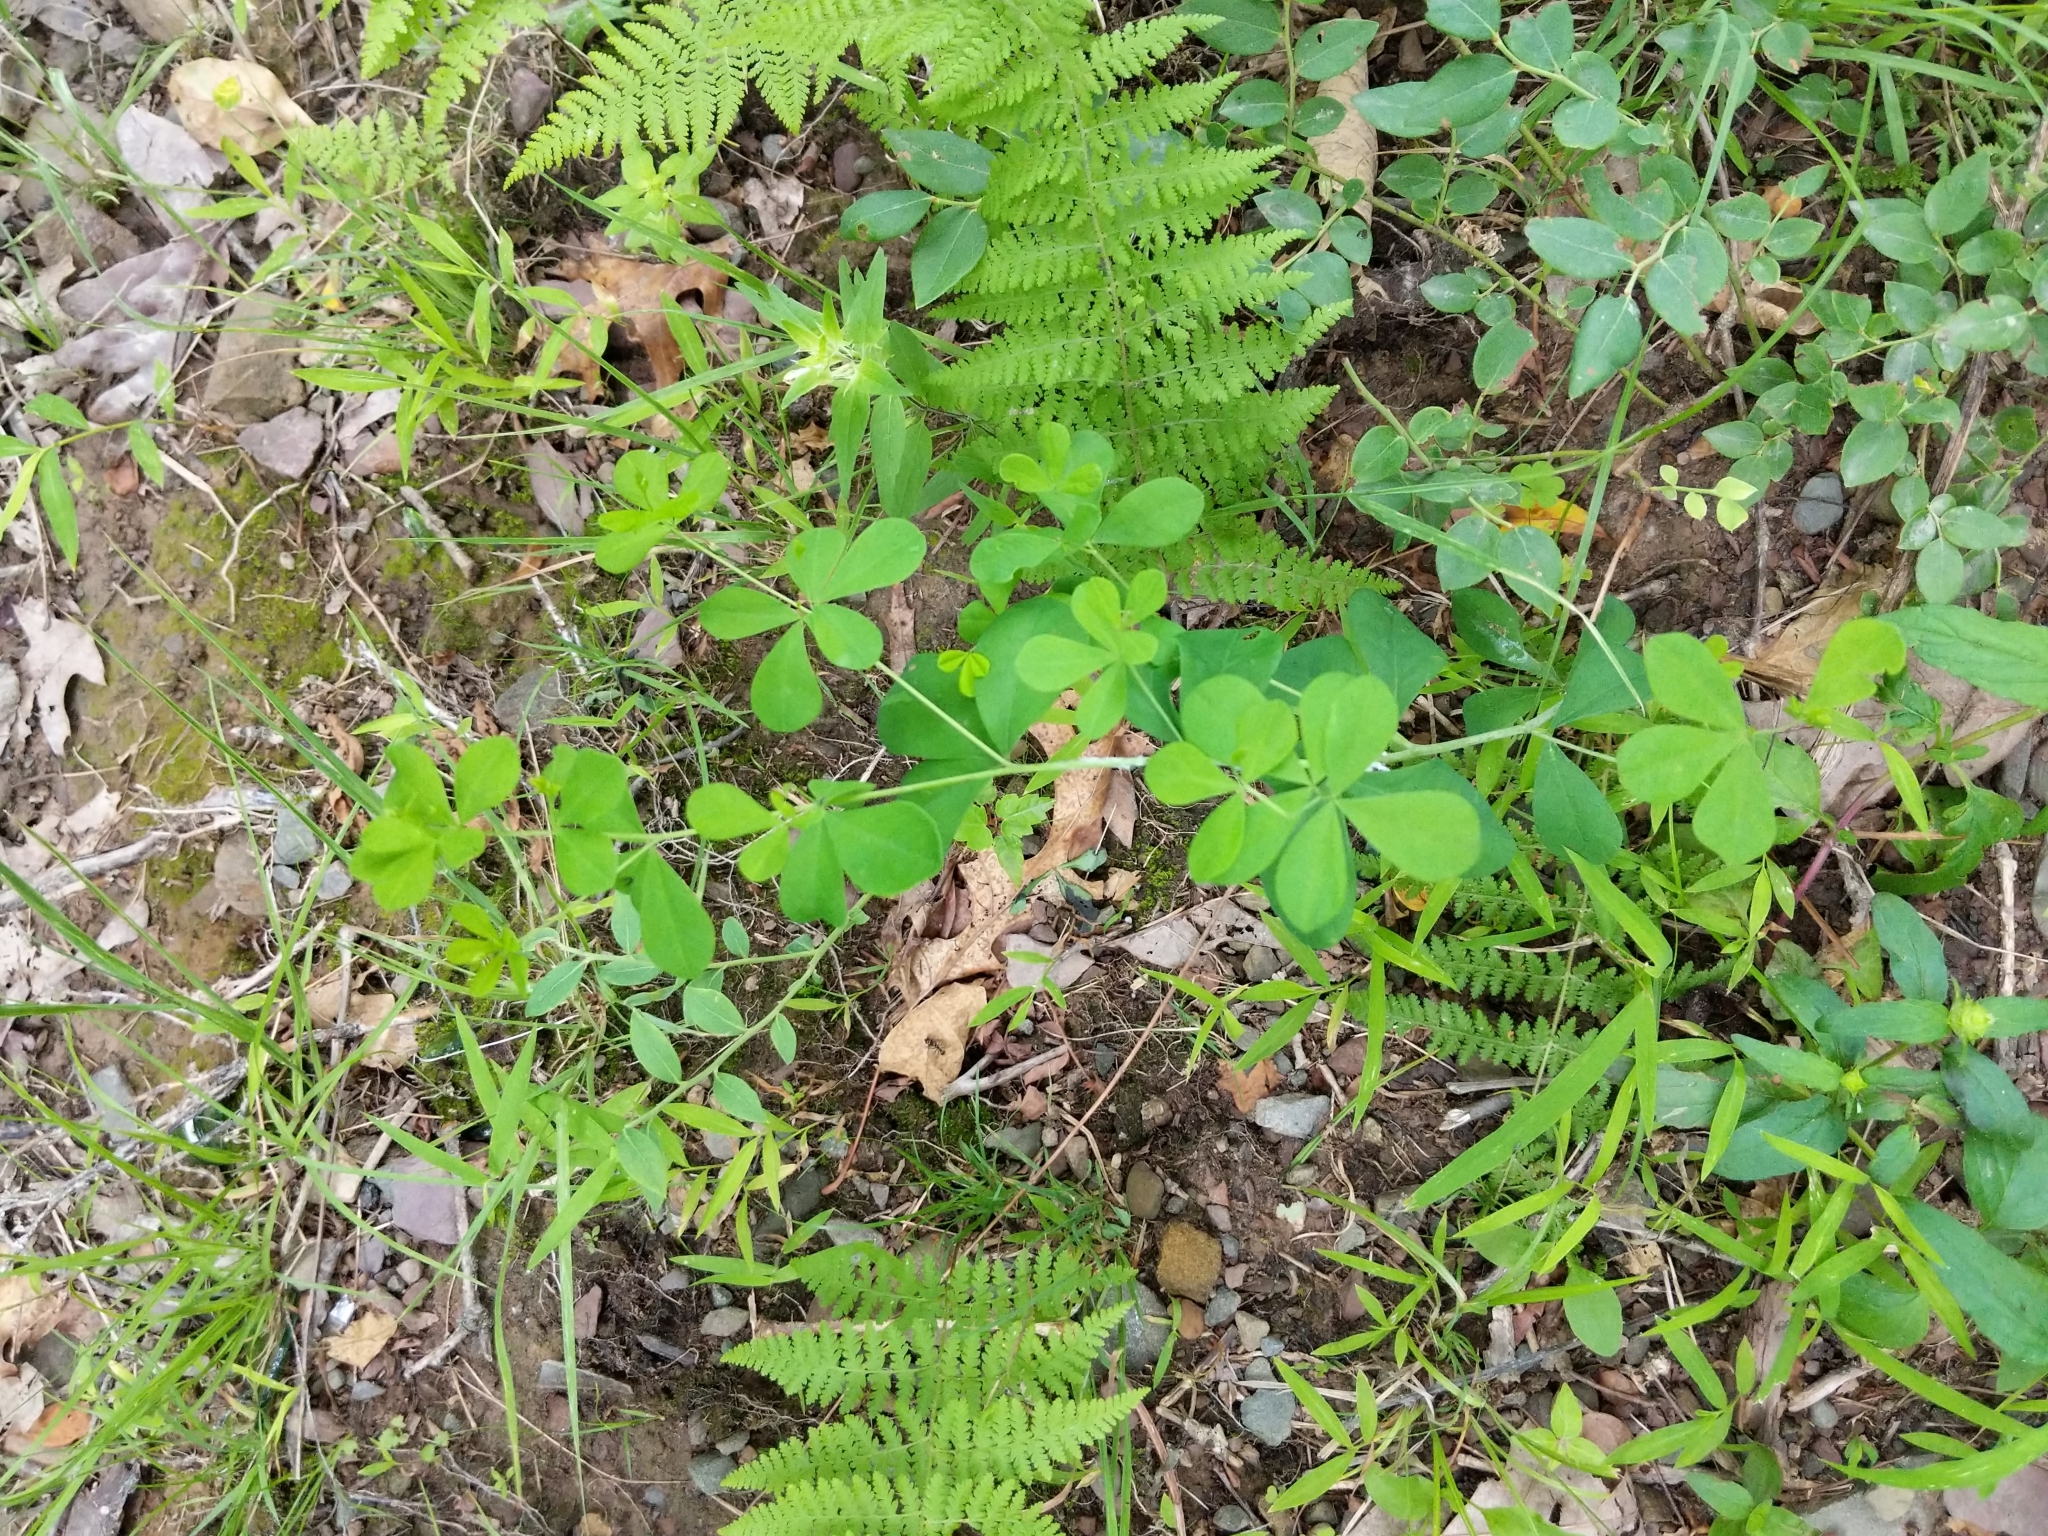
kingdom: Plantae
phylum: Tracheophyta
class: Magnoliopsida
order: Fabales
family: Fabaceae
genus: Baptisia
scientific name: Baptisia tinctoria
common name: Wild indigo
